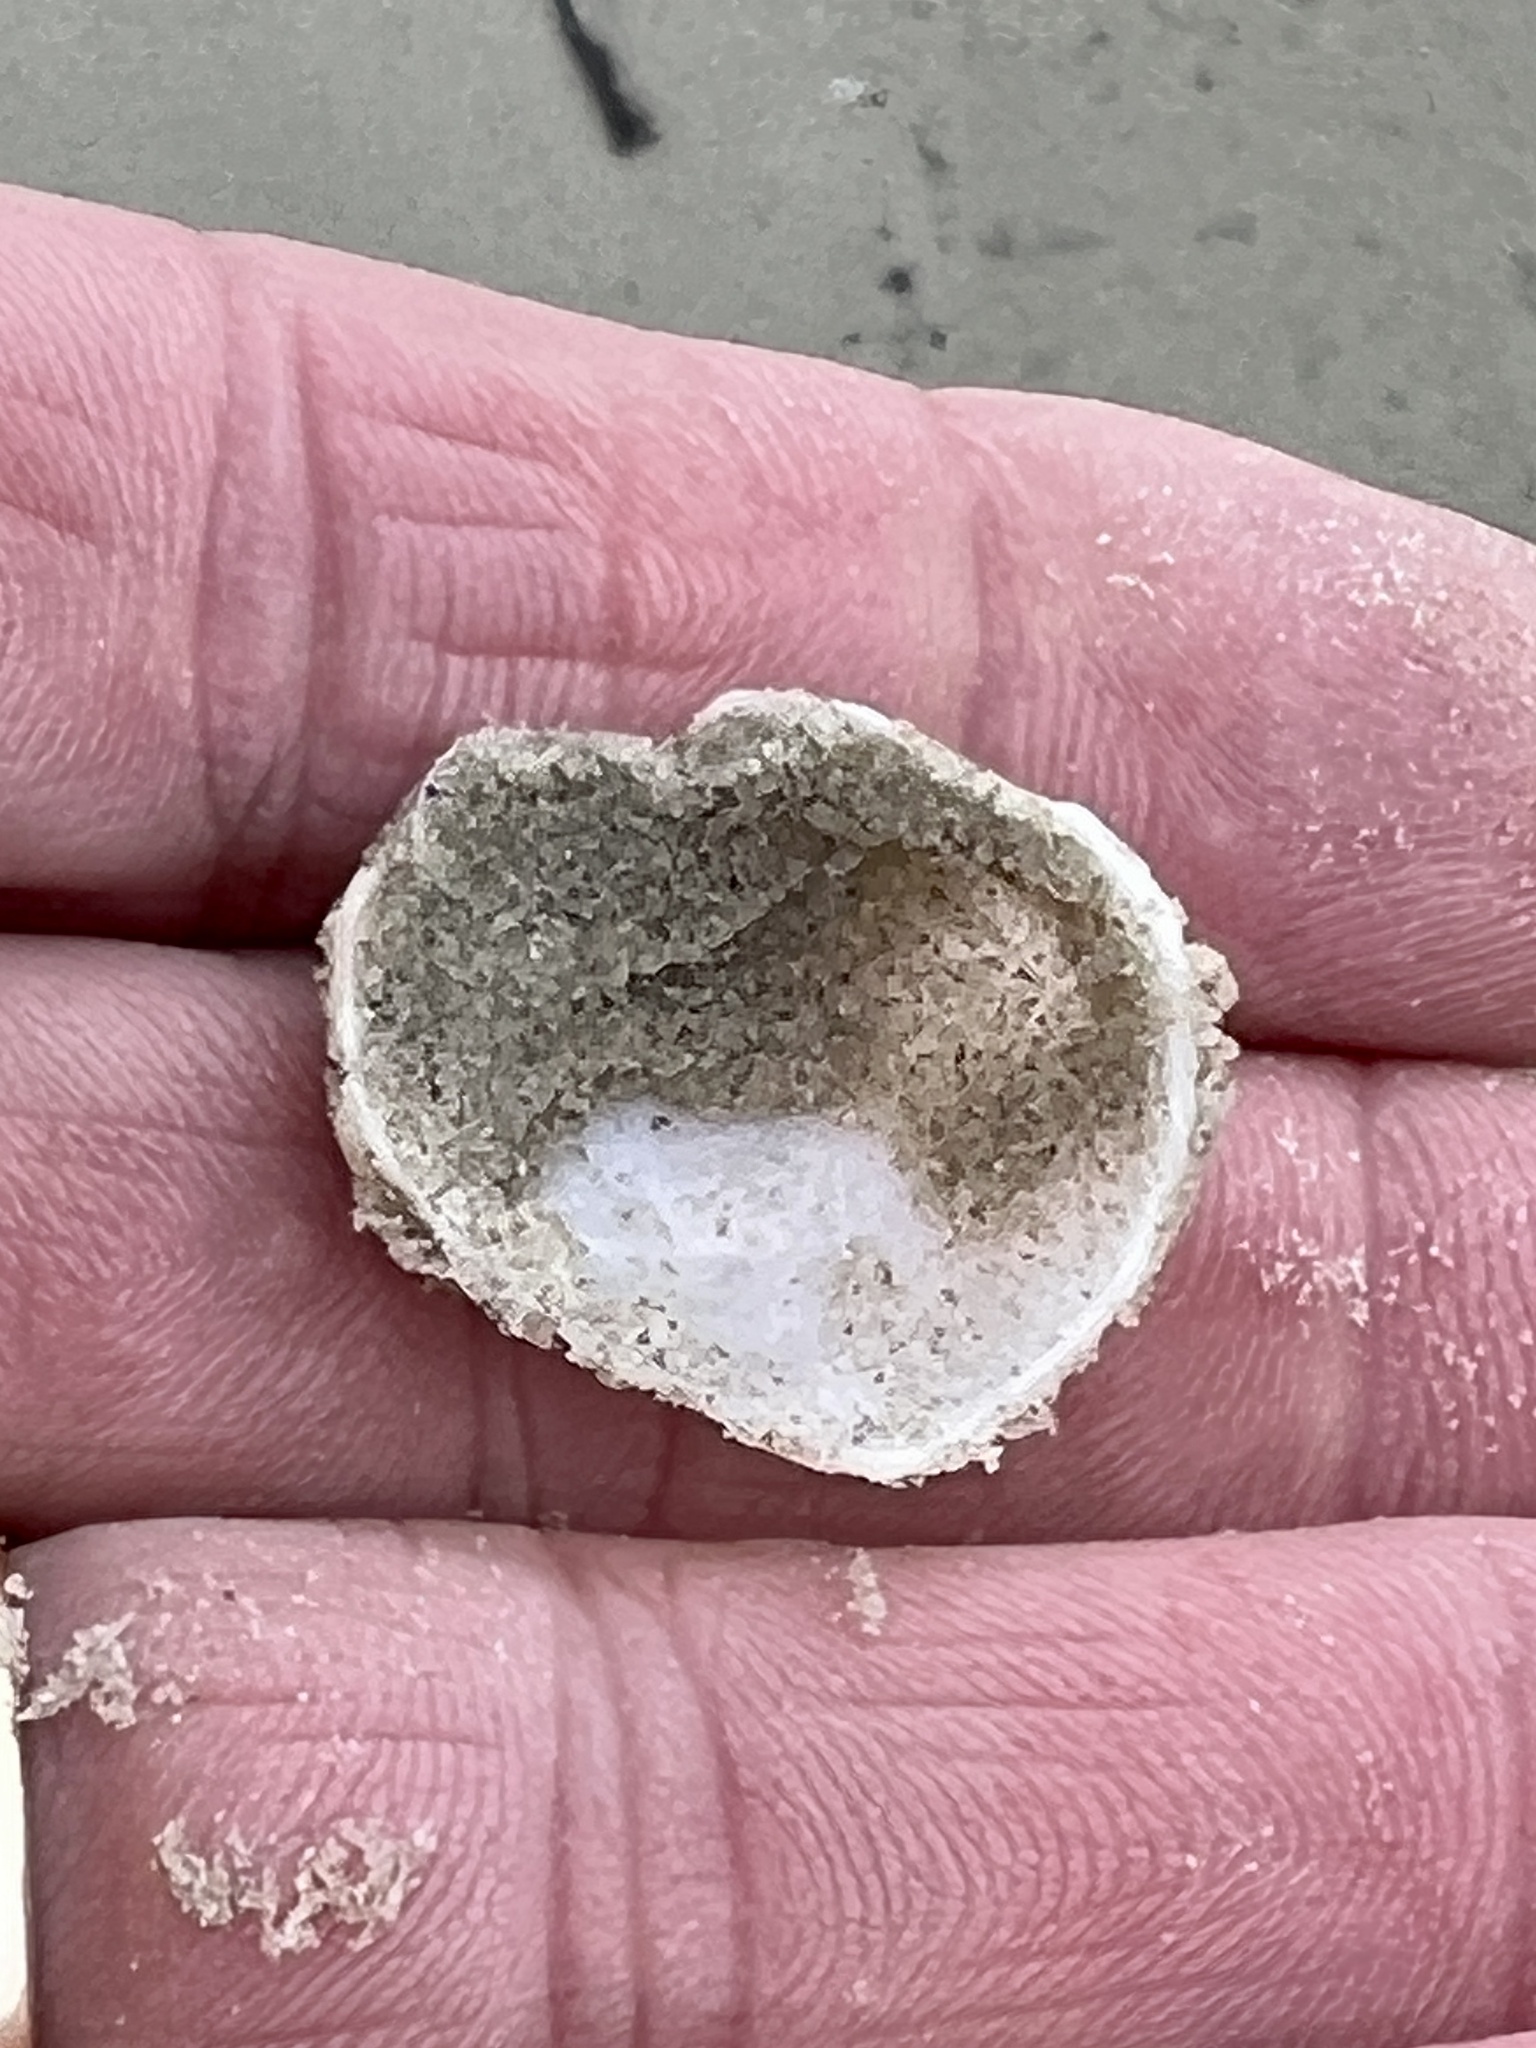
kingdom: Animalia
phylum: Mollusca
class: Gastropoda
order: Littorinimorpha
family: Cassidae
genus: Semicassis
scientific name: Semicassis granulata
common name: Scotch bonnet
